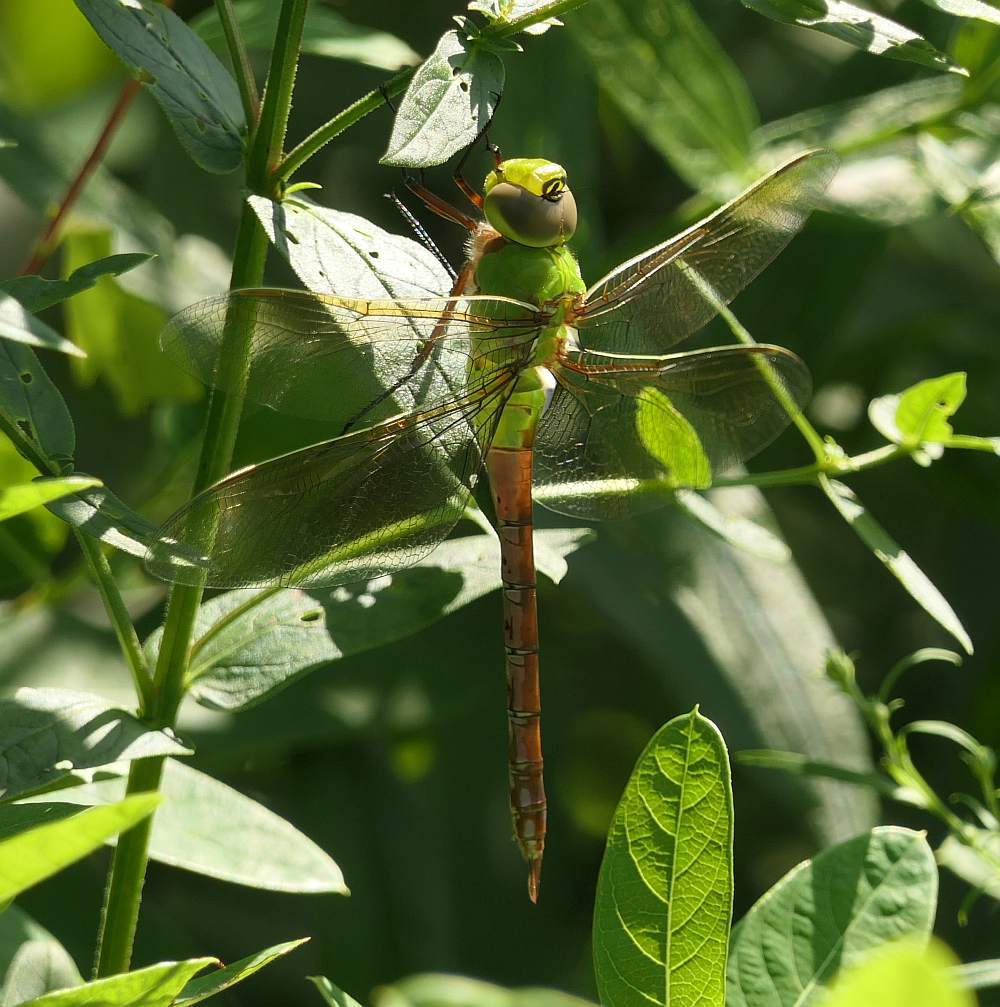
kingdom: Animalia
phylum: Arthropoda
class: Insecta
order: Odonata
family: Aeshnidae
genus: Anax
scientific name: Anax junius
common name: Common green darner
